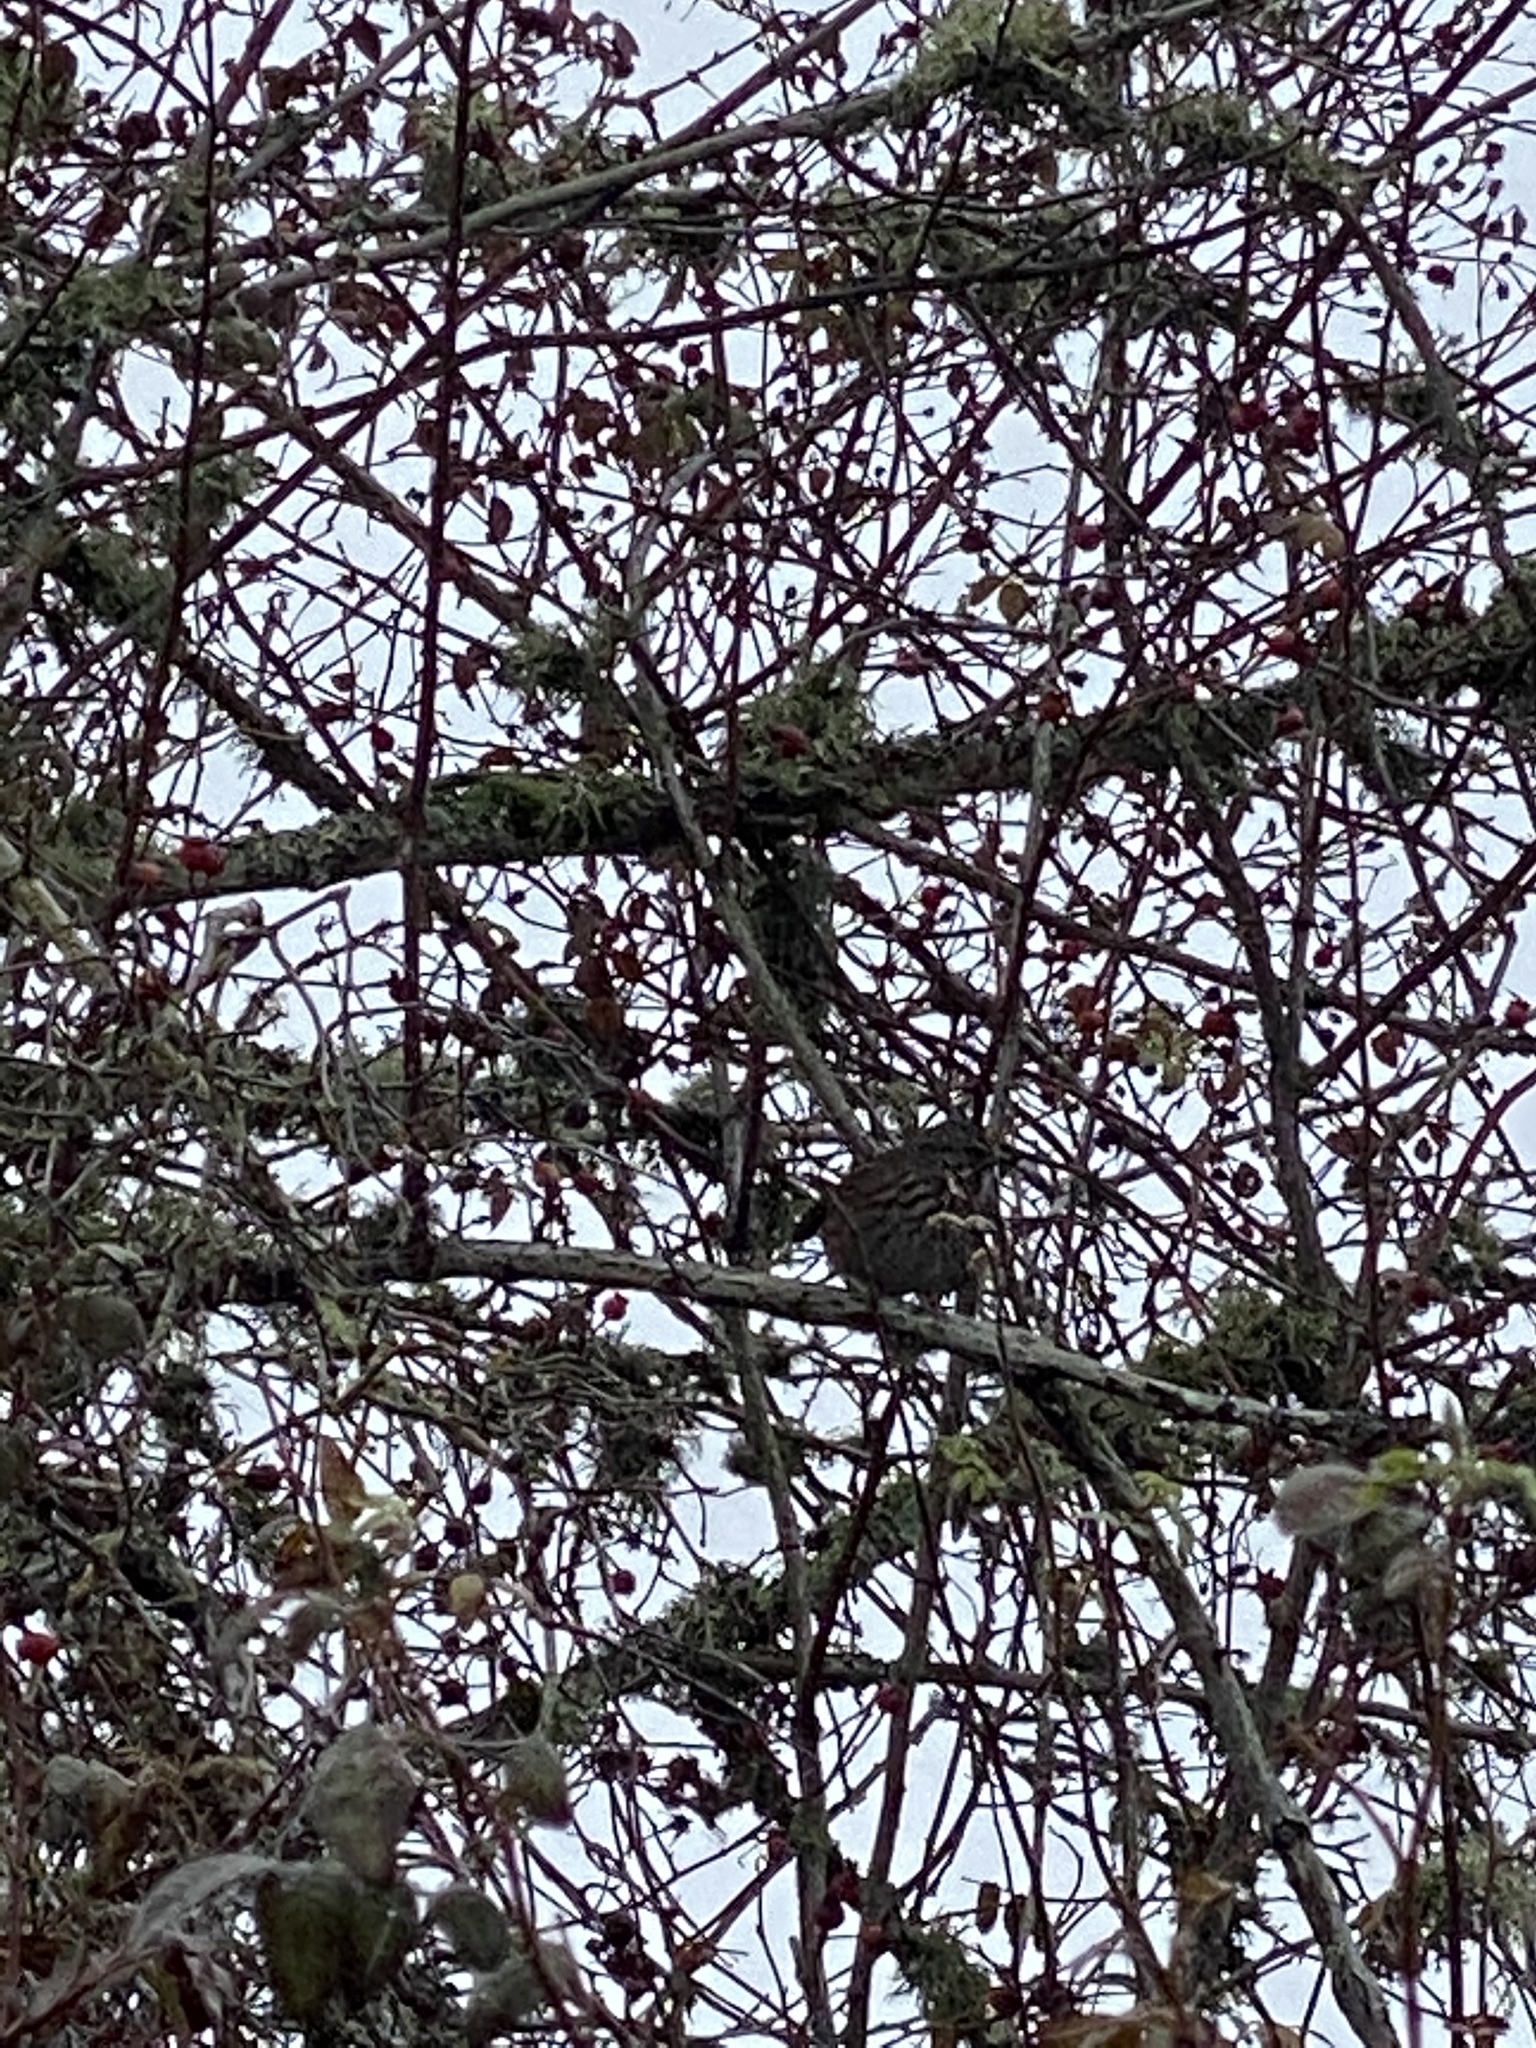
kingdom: Animalia
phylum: Chordata
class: Aves
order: Passeriformes
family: Passerellidae
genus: Melospiza
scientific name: Melospiza melodia
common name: Song sparrow
